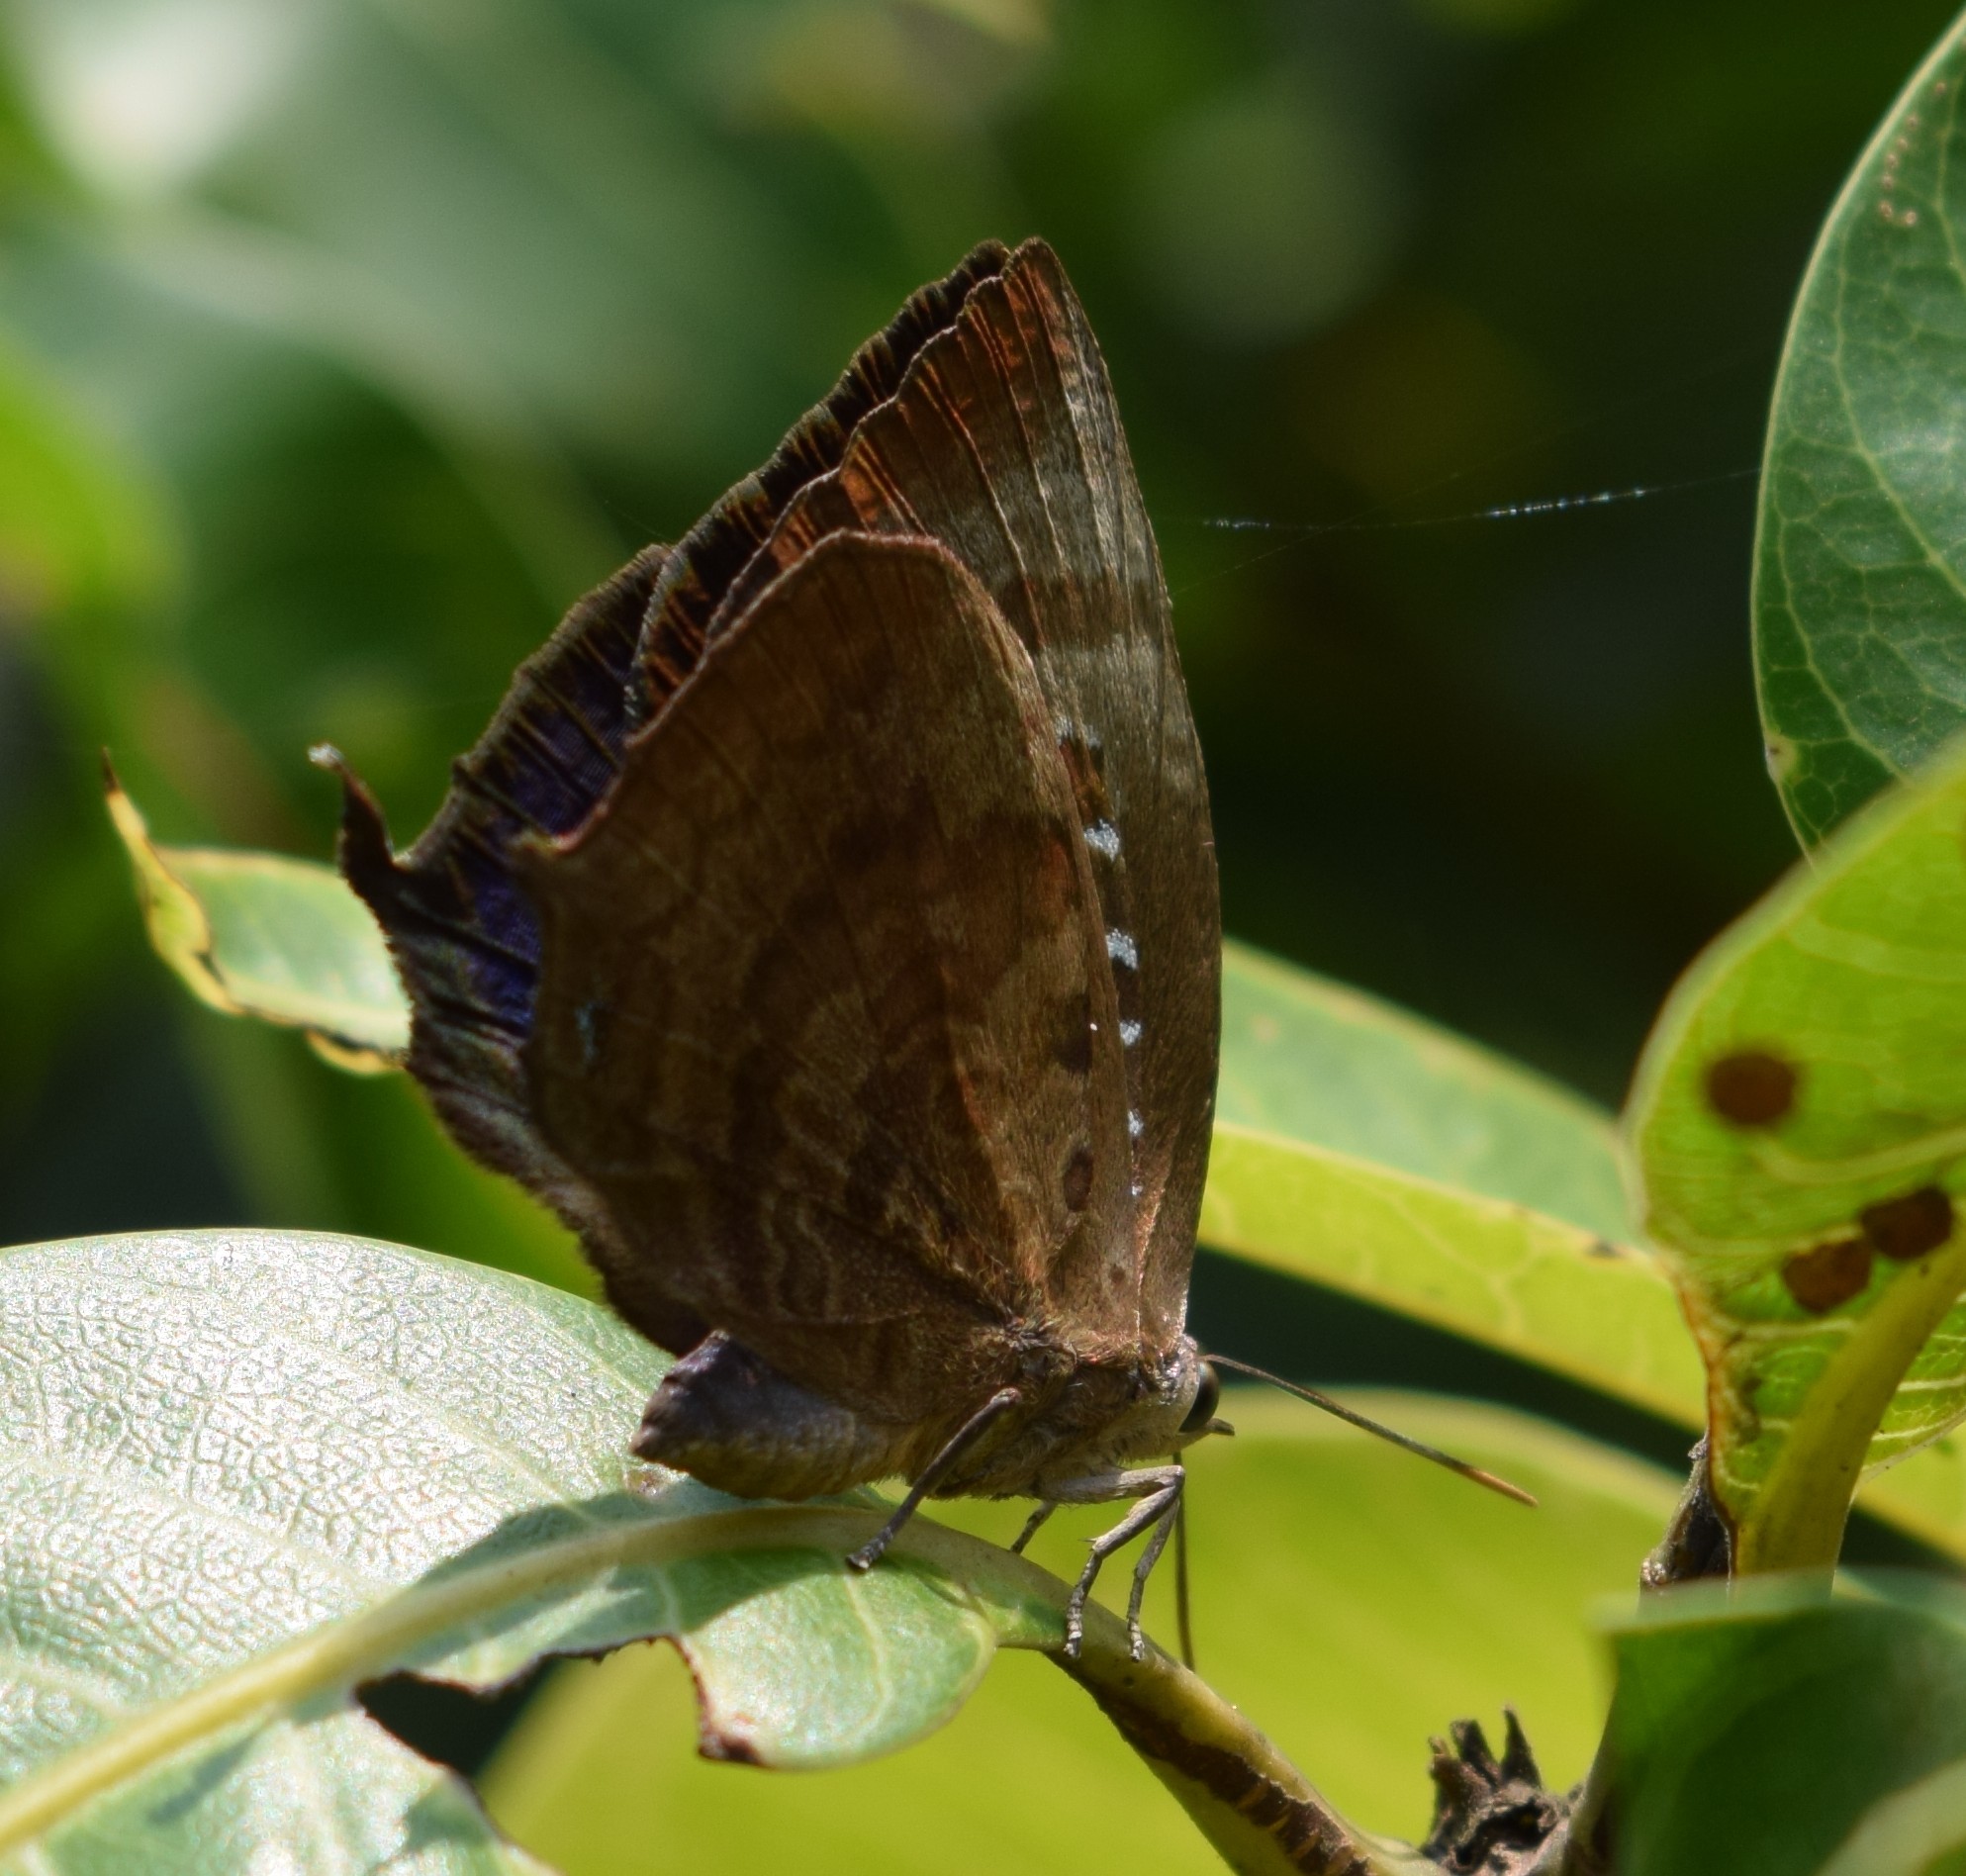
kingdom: Animalia
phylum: Arthropoda
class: Insecta
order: Lepidoptera
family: Lycaenidae
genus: Arhopala
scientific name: Arhopala centaurus
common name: Dull oak-blue
